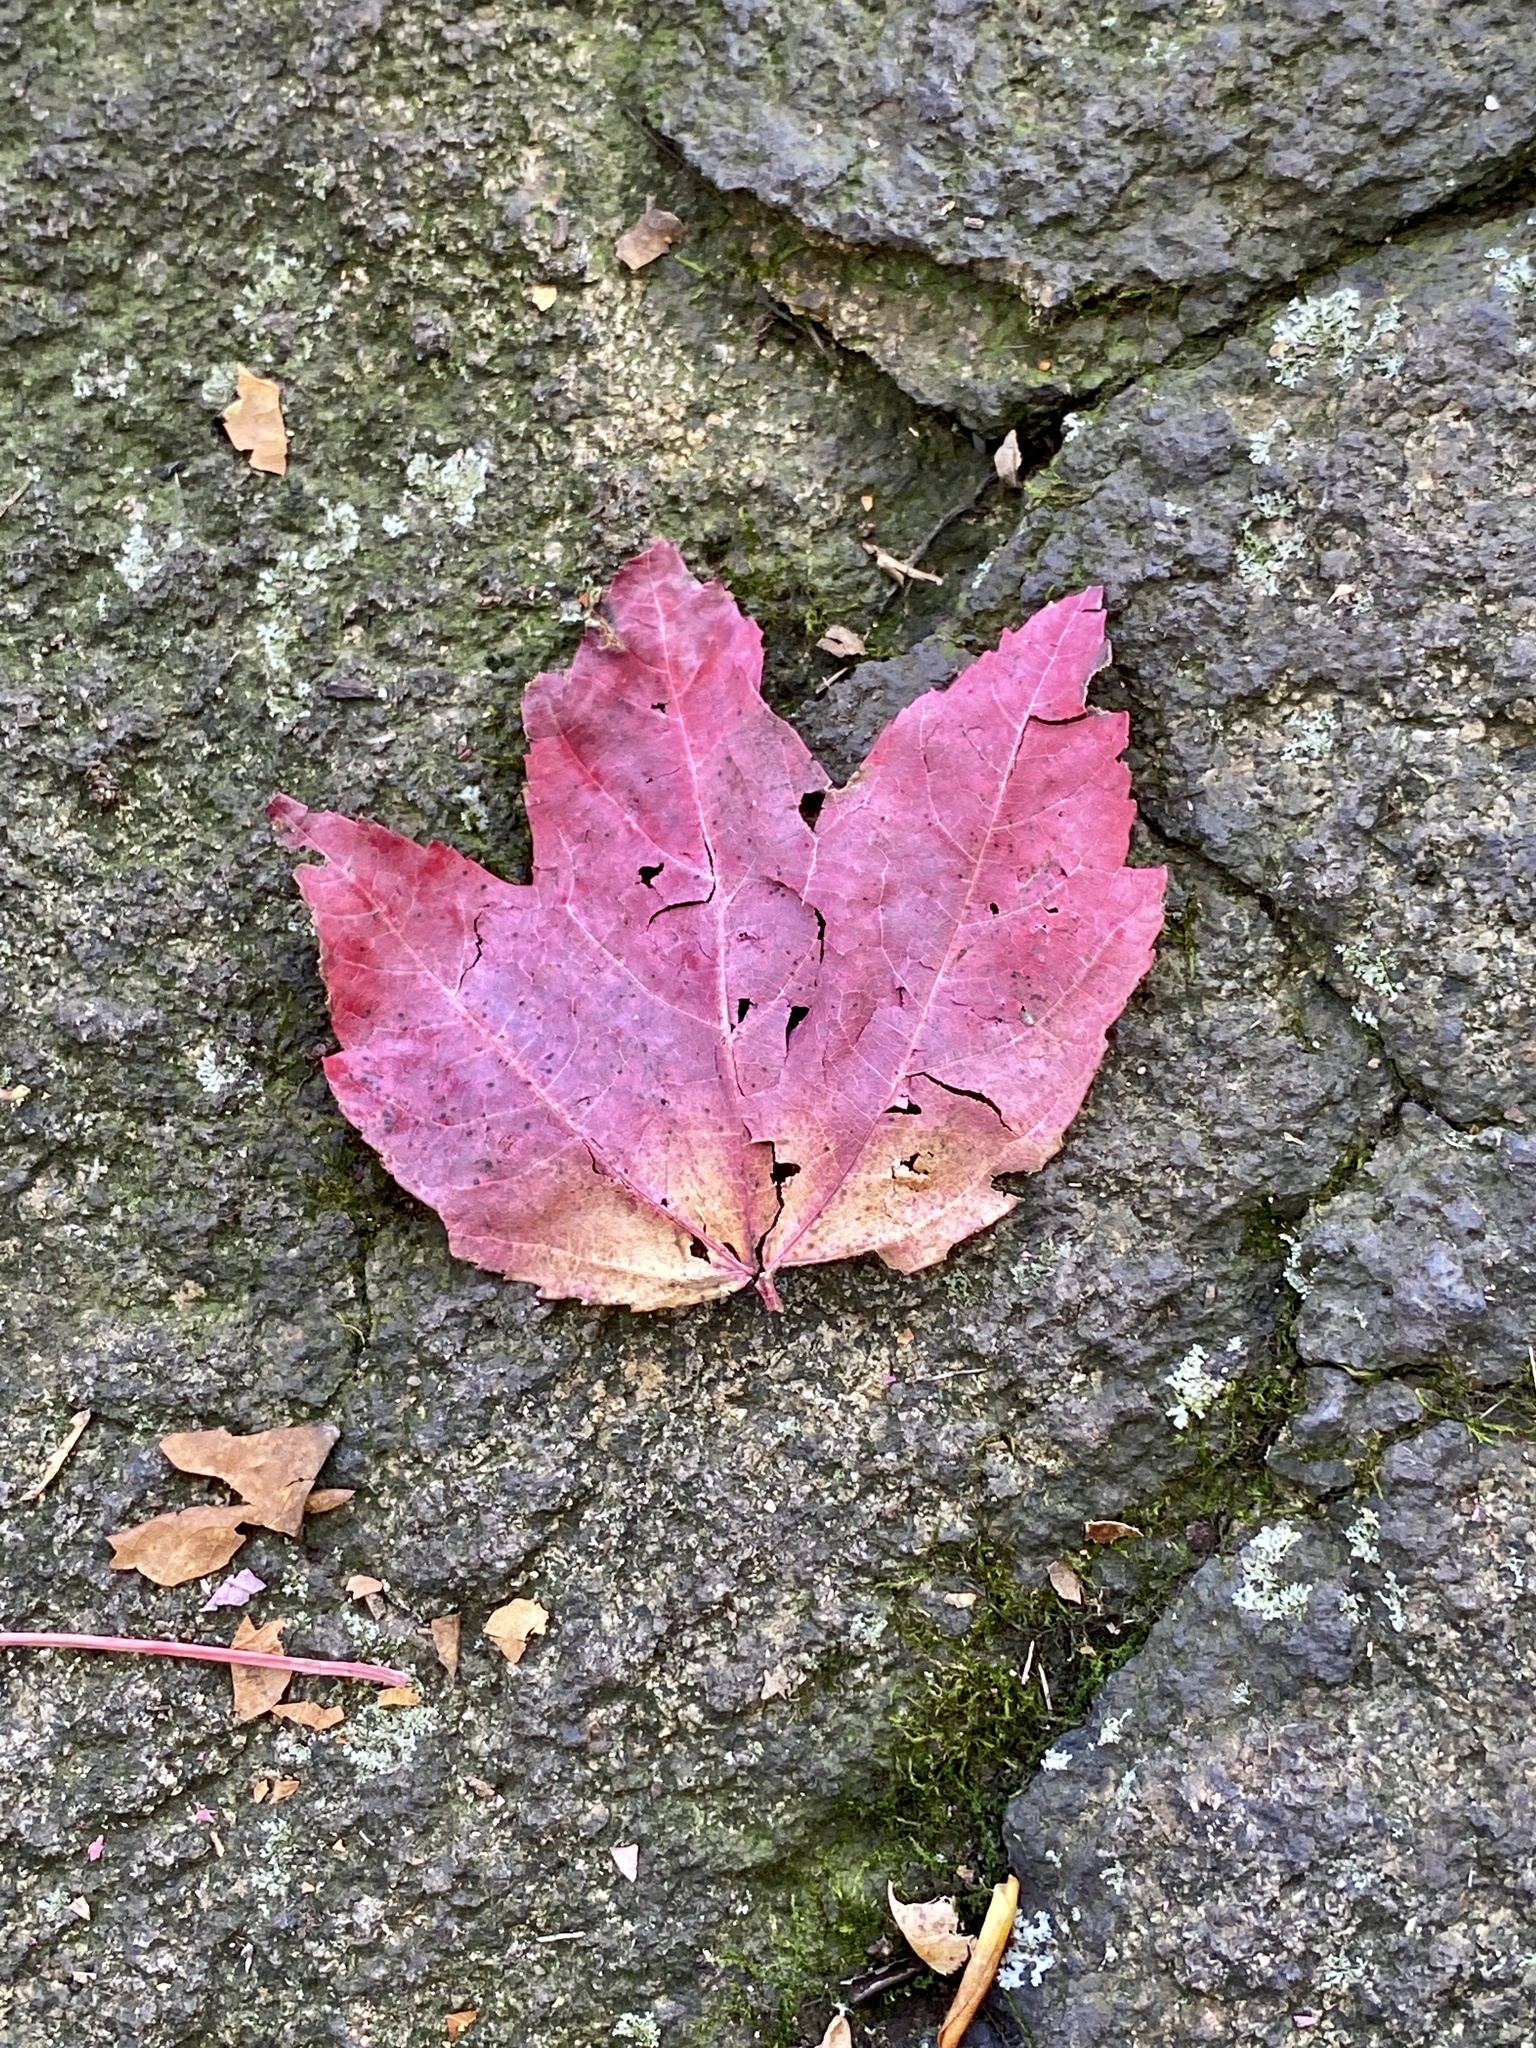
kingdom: Plantae
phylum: Tracheophyta
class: Magnoliopsida
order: Sapindales
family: Sapindaceae
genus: Acer
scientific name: Acer rubrum
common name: Red maple
